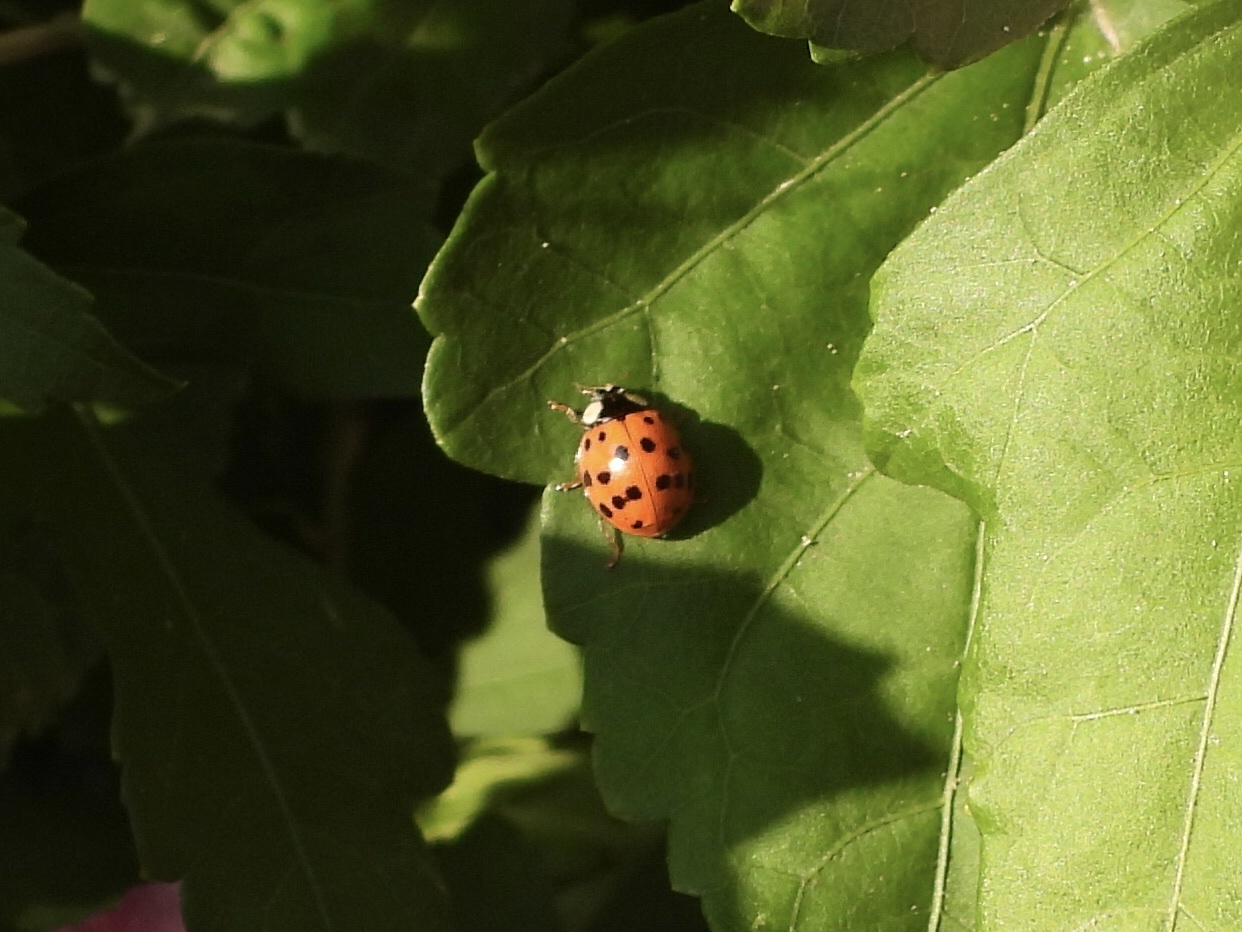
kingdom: Animalia
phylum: Arthropoda
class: Insecta
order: Coleoptera
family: Coccinellidae
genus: Harmonia
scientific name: Harmonia axyridis
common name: Harlequin ladybird
